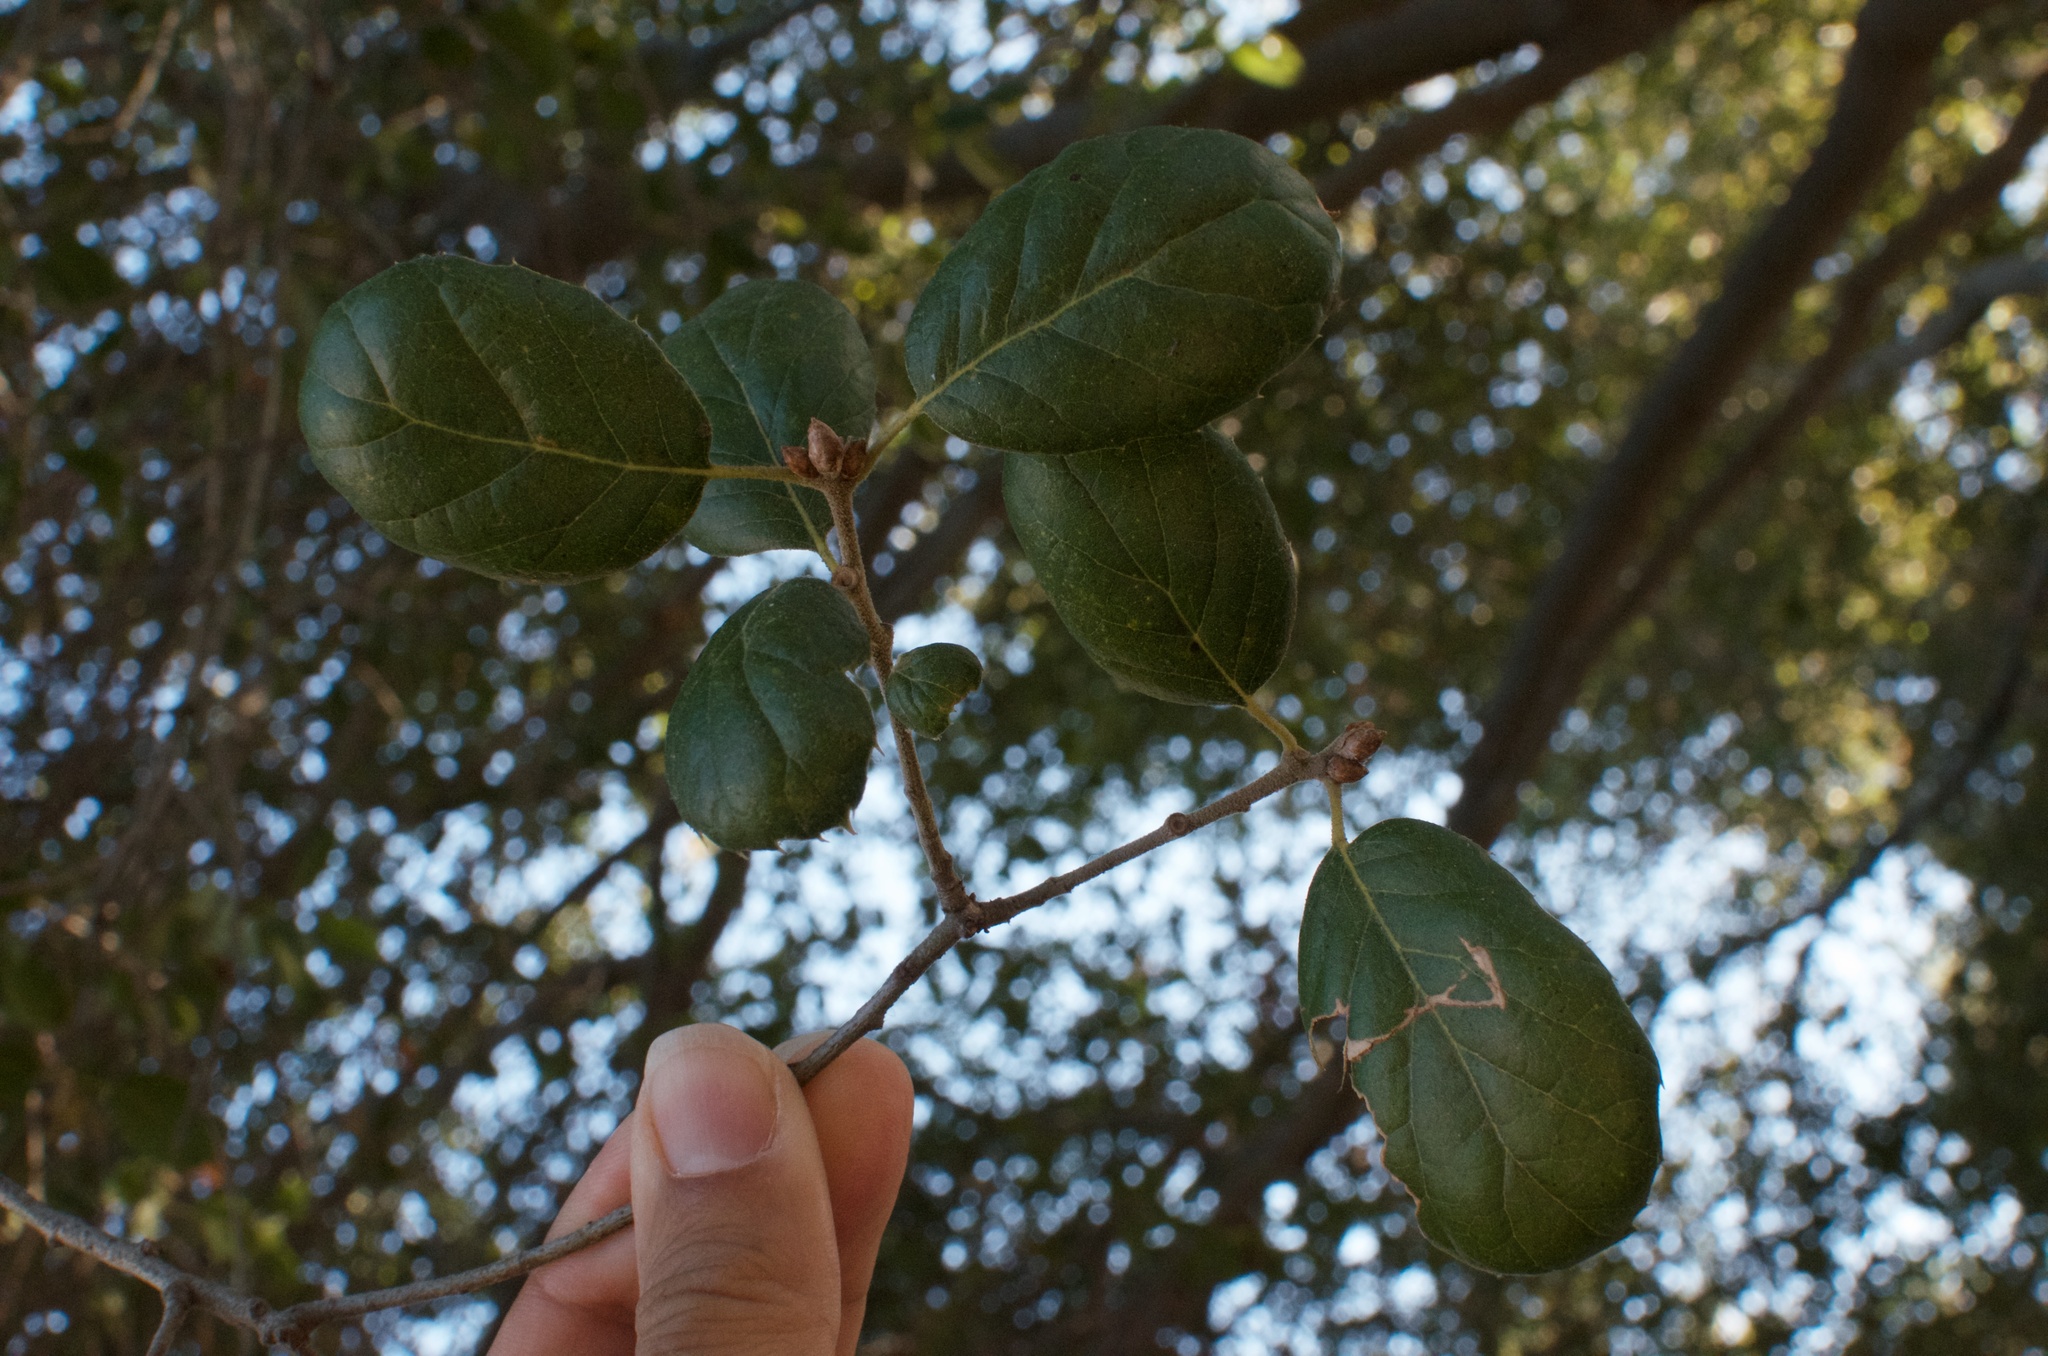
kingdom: Plantae
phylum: Tracheophyta
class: Magnoliopsida
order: Fagales
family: Fagaceae
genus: Quercus
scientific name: Quercus agrifolia
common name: California live oak
